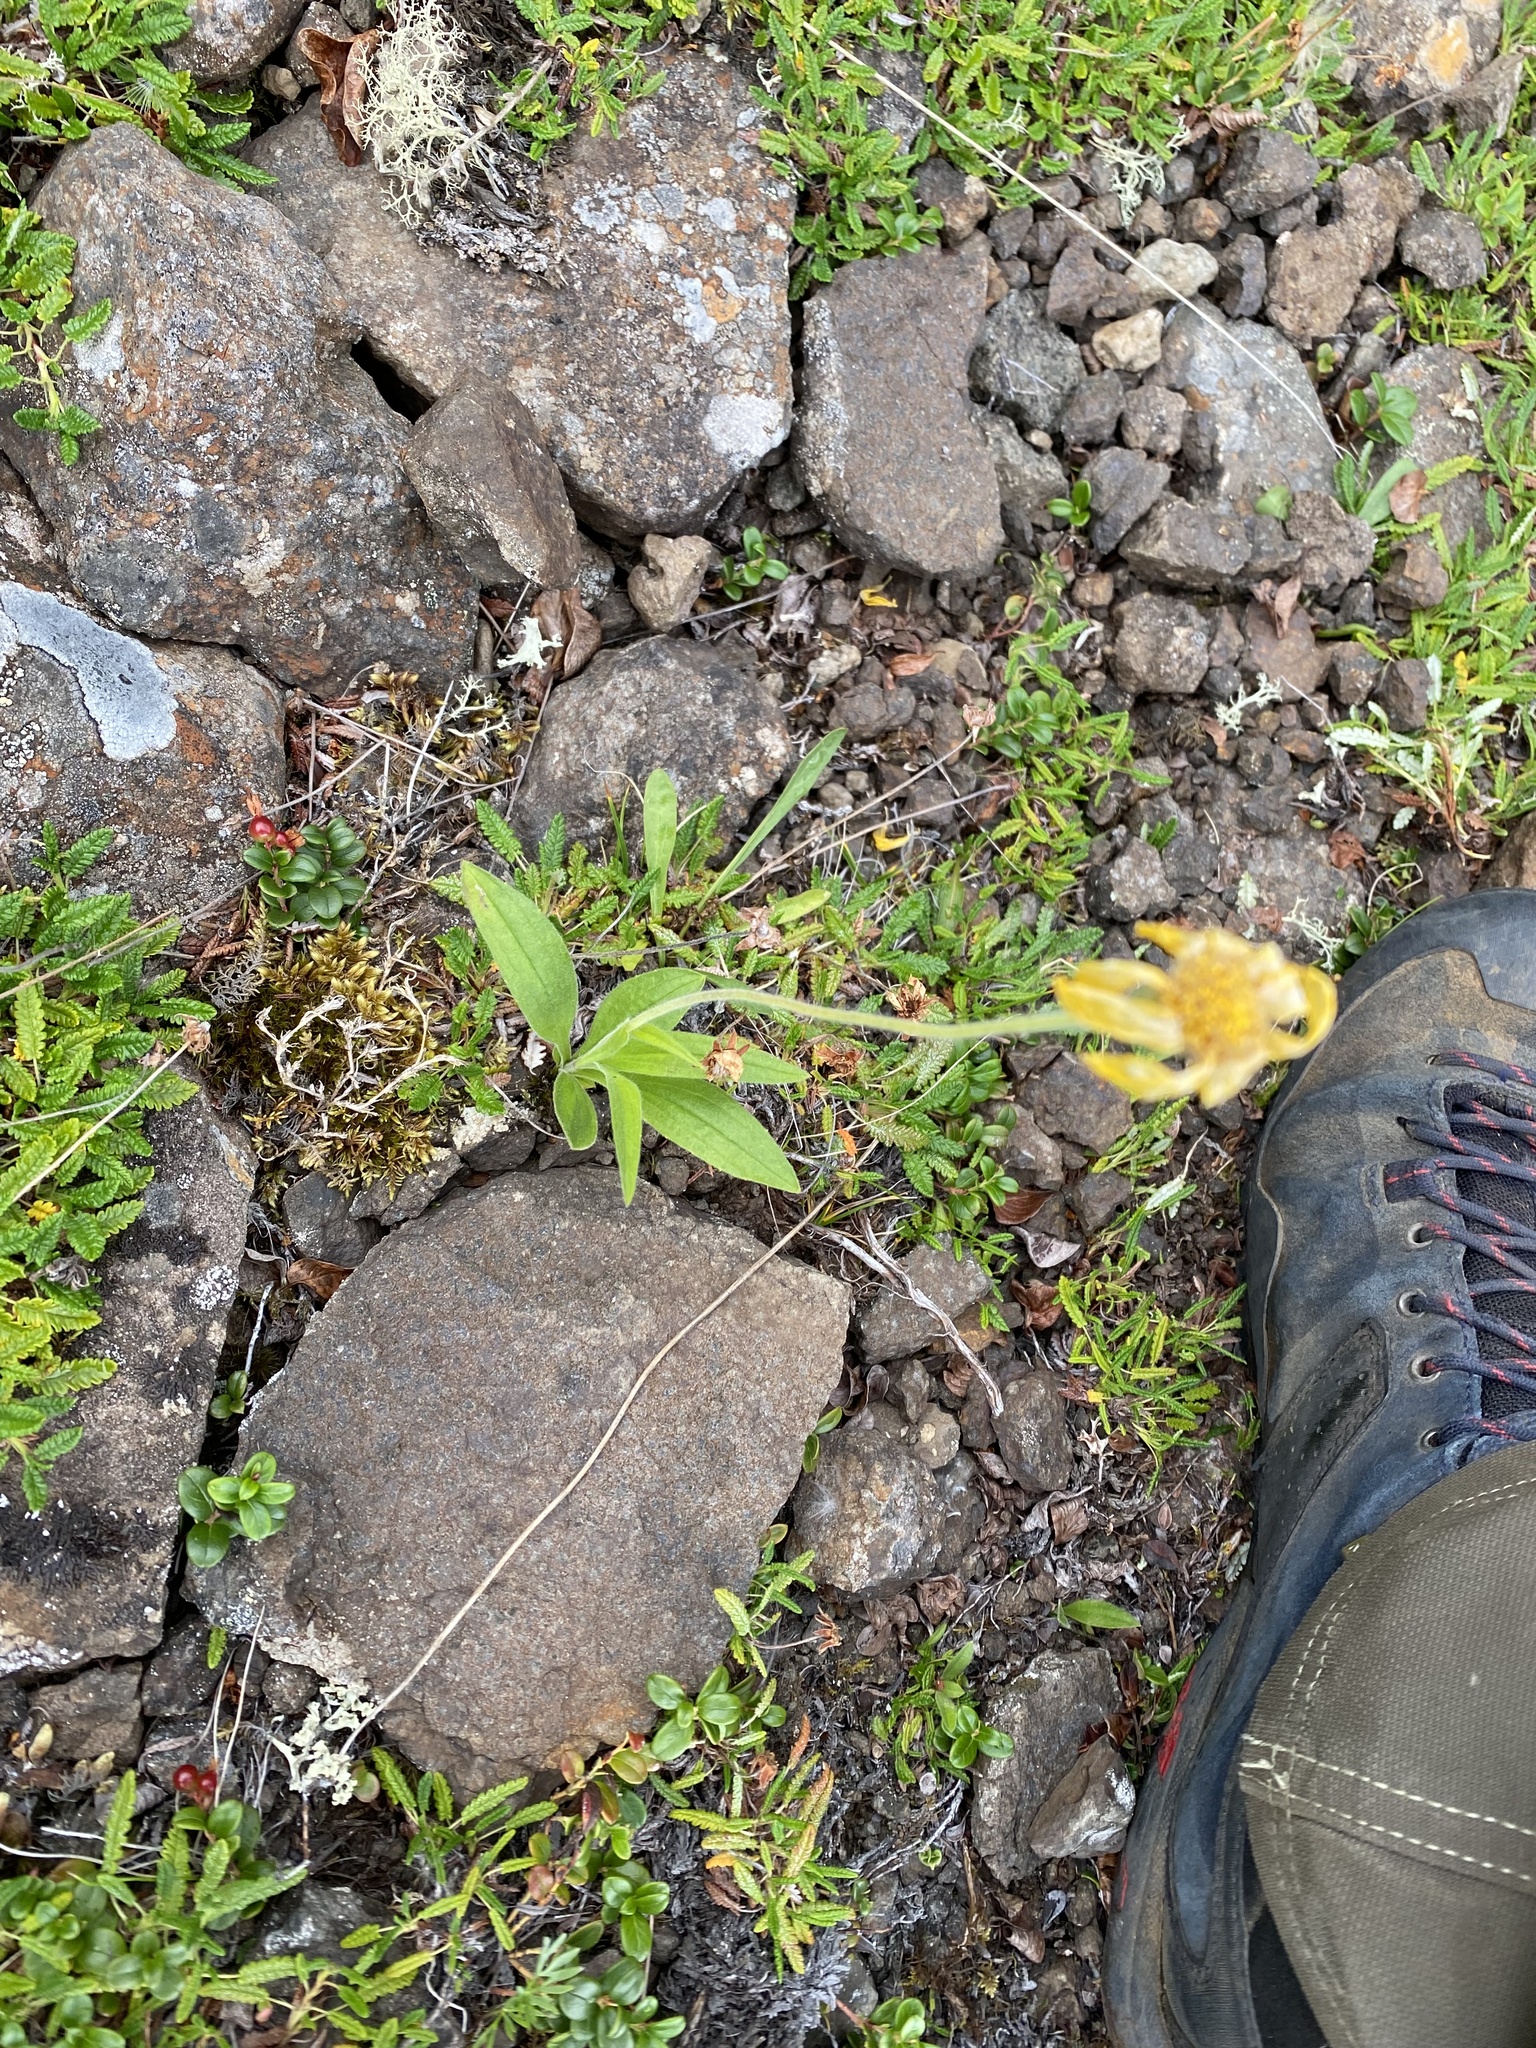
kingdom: Plantae
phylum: Tracheophyta
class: Magnoliopsida
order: Asterales
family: Asteraceae
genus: Arnica
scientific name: Arnica angustifolia
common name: Arctic arnica
